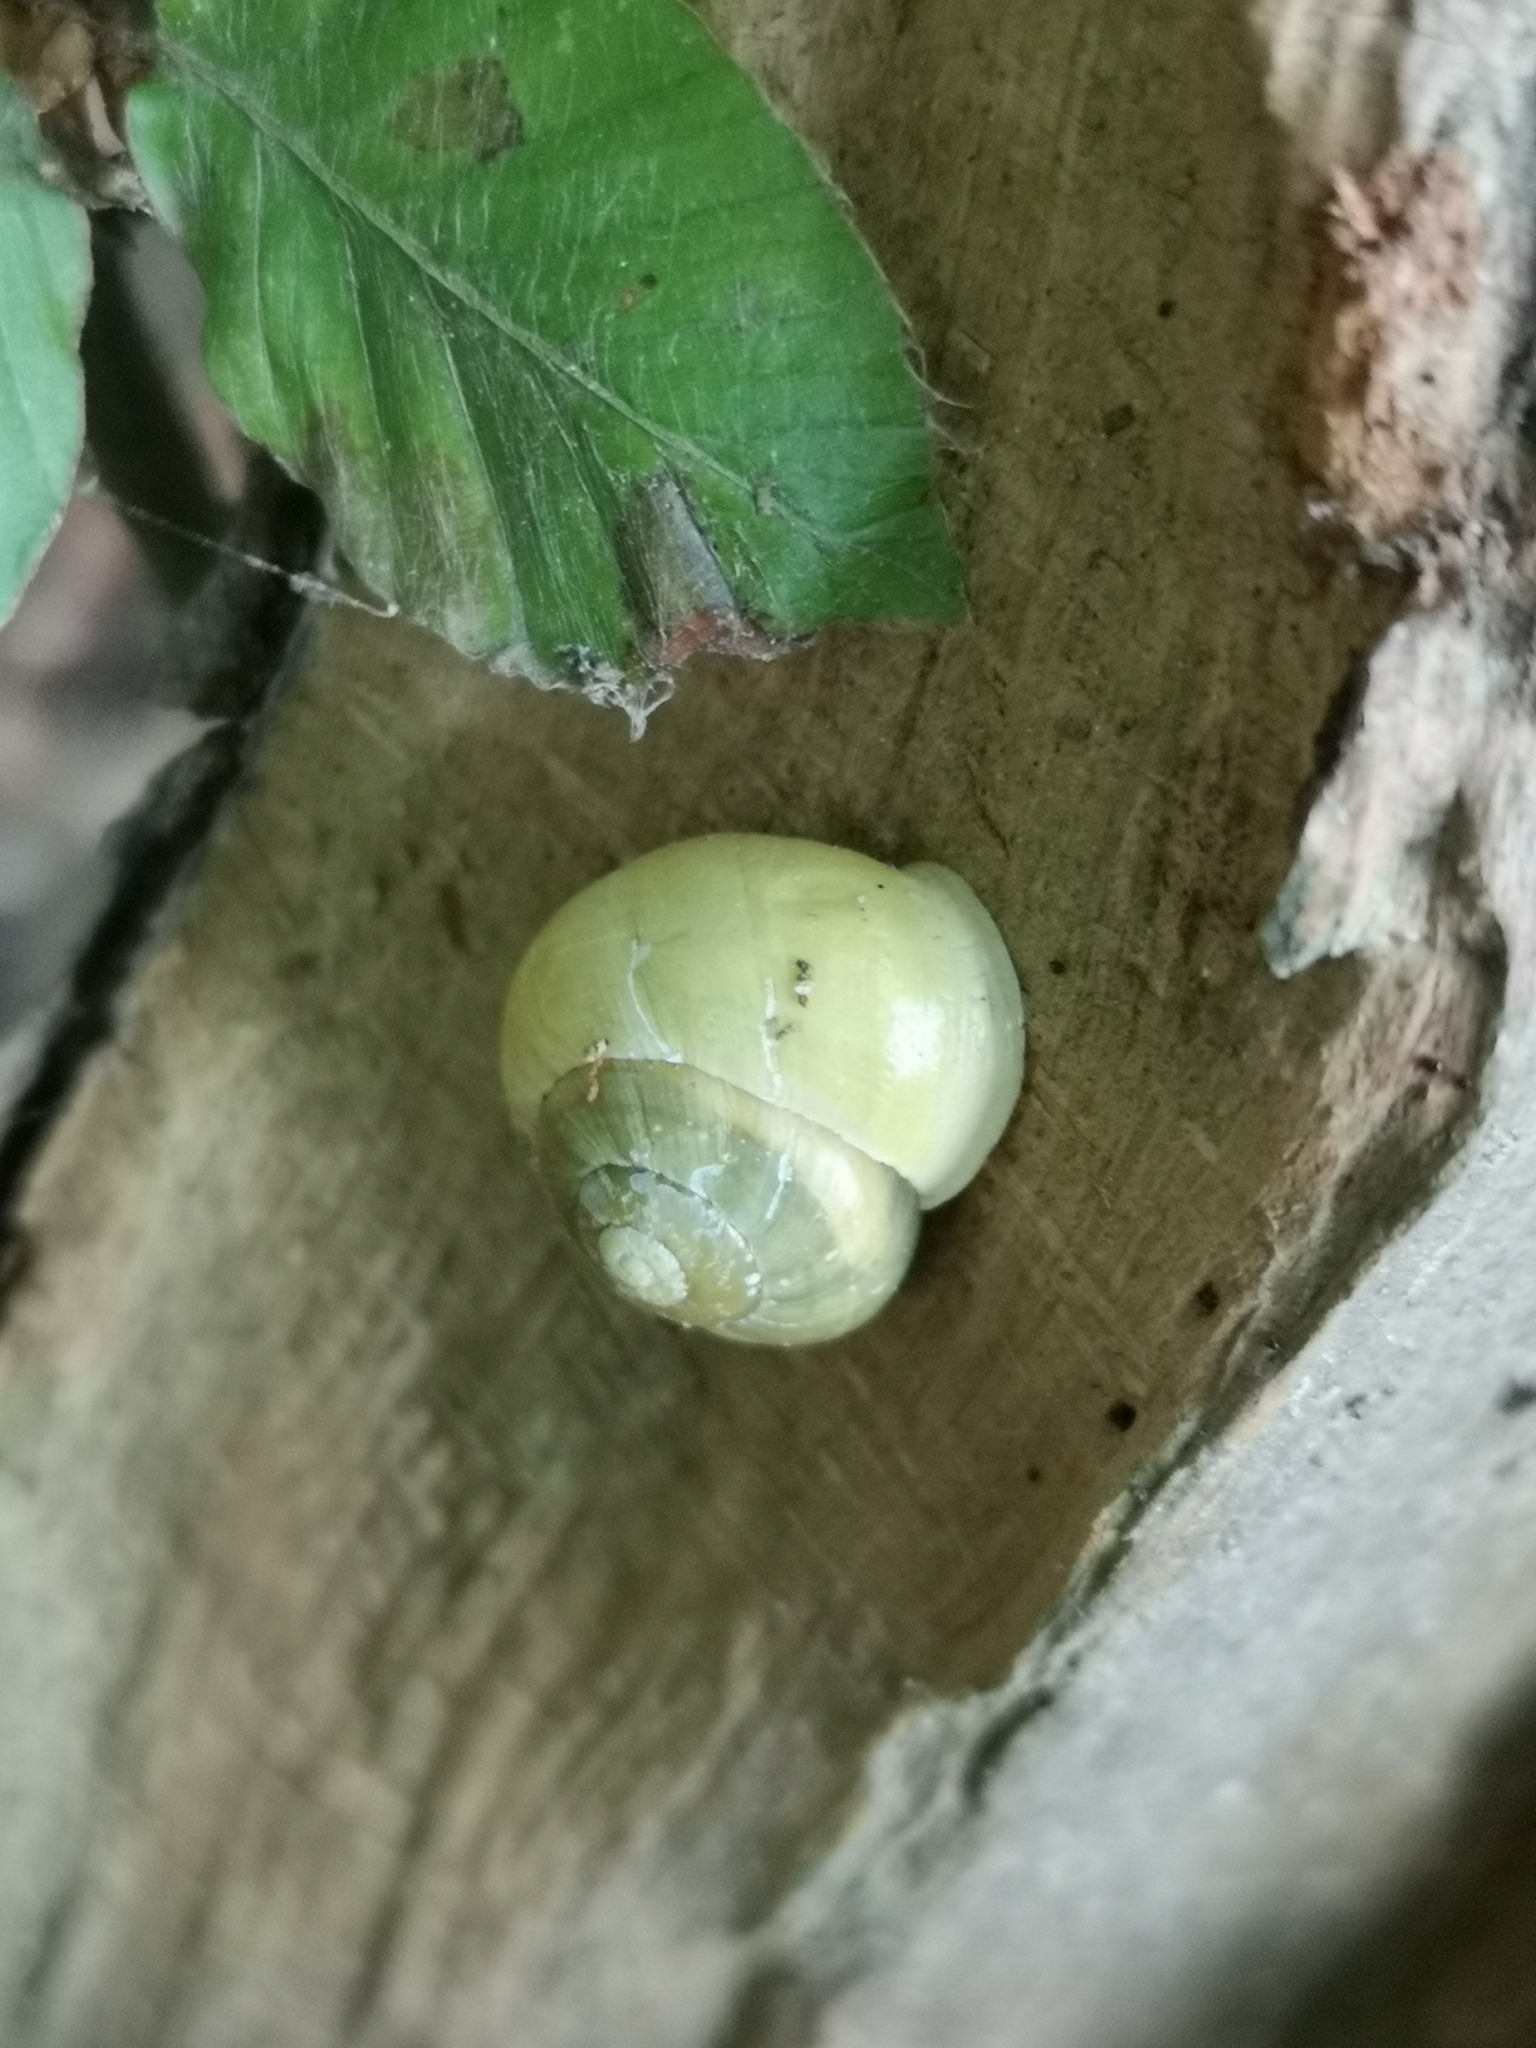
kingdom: Animalia
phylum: Mollusca
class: Gastropoda
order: Stylommatophora
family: Helicidae
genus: Cepaea
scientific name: Cepaea hortensis
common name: White-lip gardensnail
